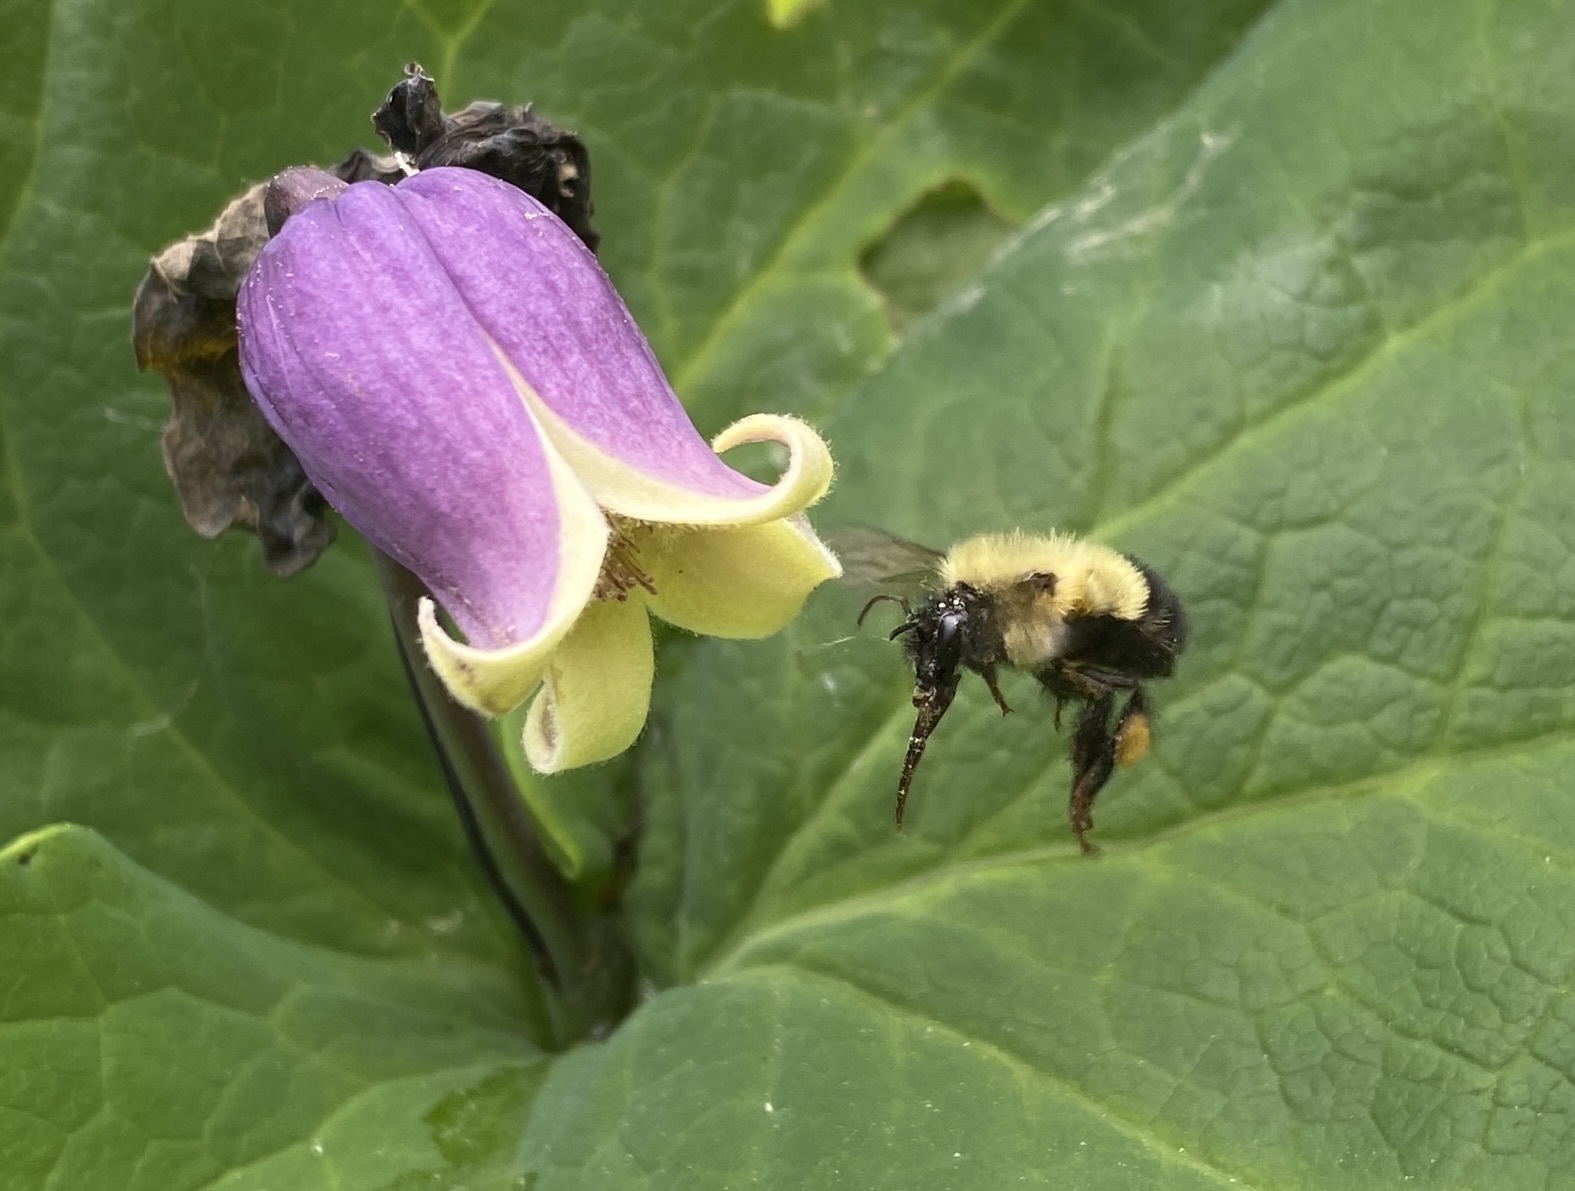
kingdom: Animalia
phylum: Arthropoda
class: Insecta
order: Hymenoptera
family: Apidae
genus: Bombus
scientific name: Bombus vagans
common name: Half-black bumble bee
